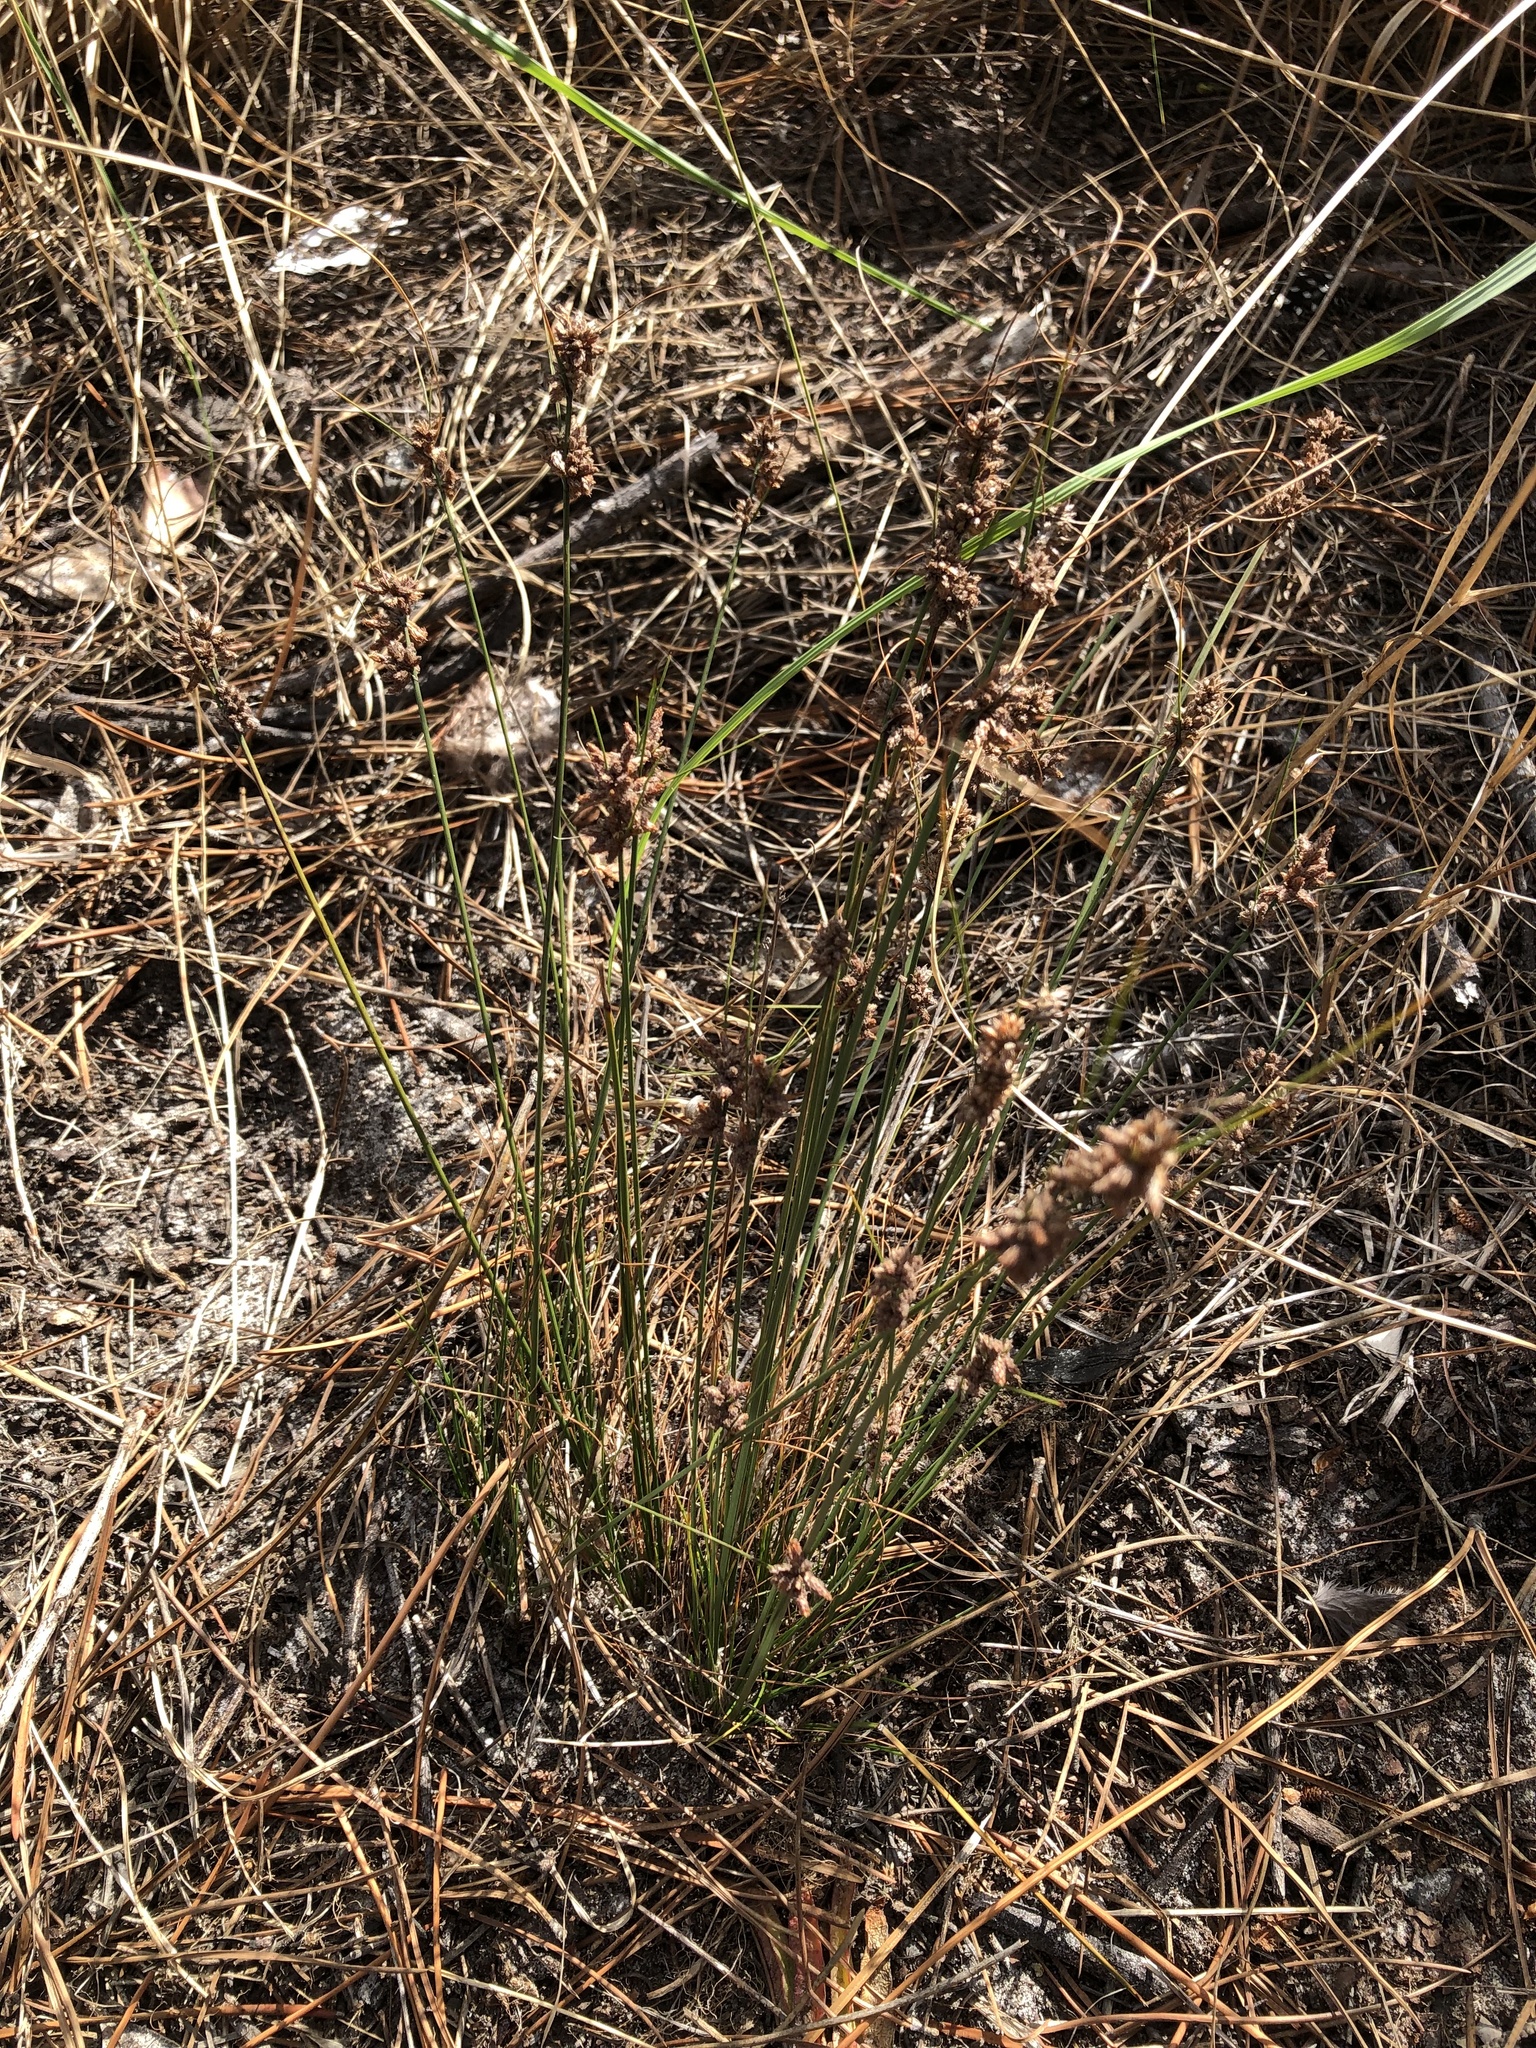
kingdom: Plantae
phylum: Tracheophyta
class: Liliopsida
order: Poales
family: Cyperaceae
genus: Ficinia
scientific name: Ficinia bulbosa
